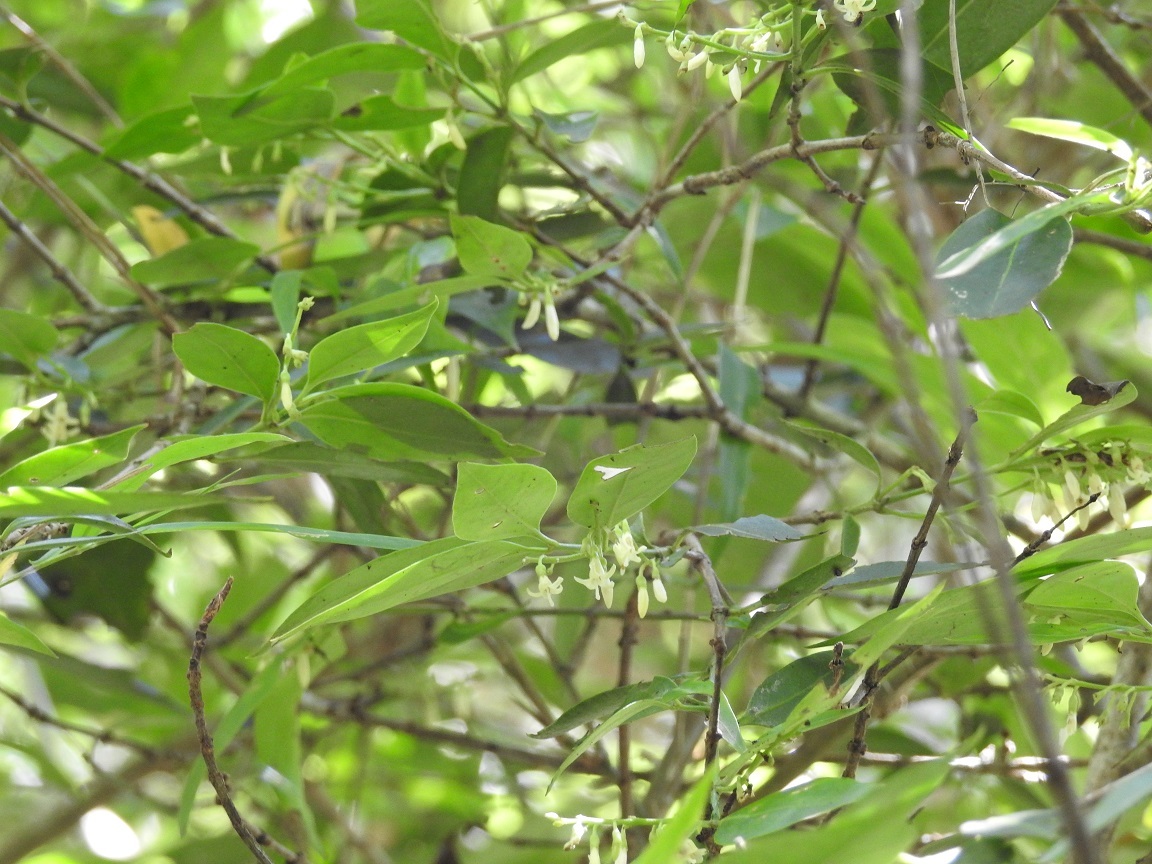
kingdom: Plantae
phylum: Tracheophyta
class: Magnoliopsida
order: Gentianales
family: Rubiaceae
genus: Chiococca
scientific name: Chiococca alba
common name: Snowberry
